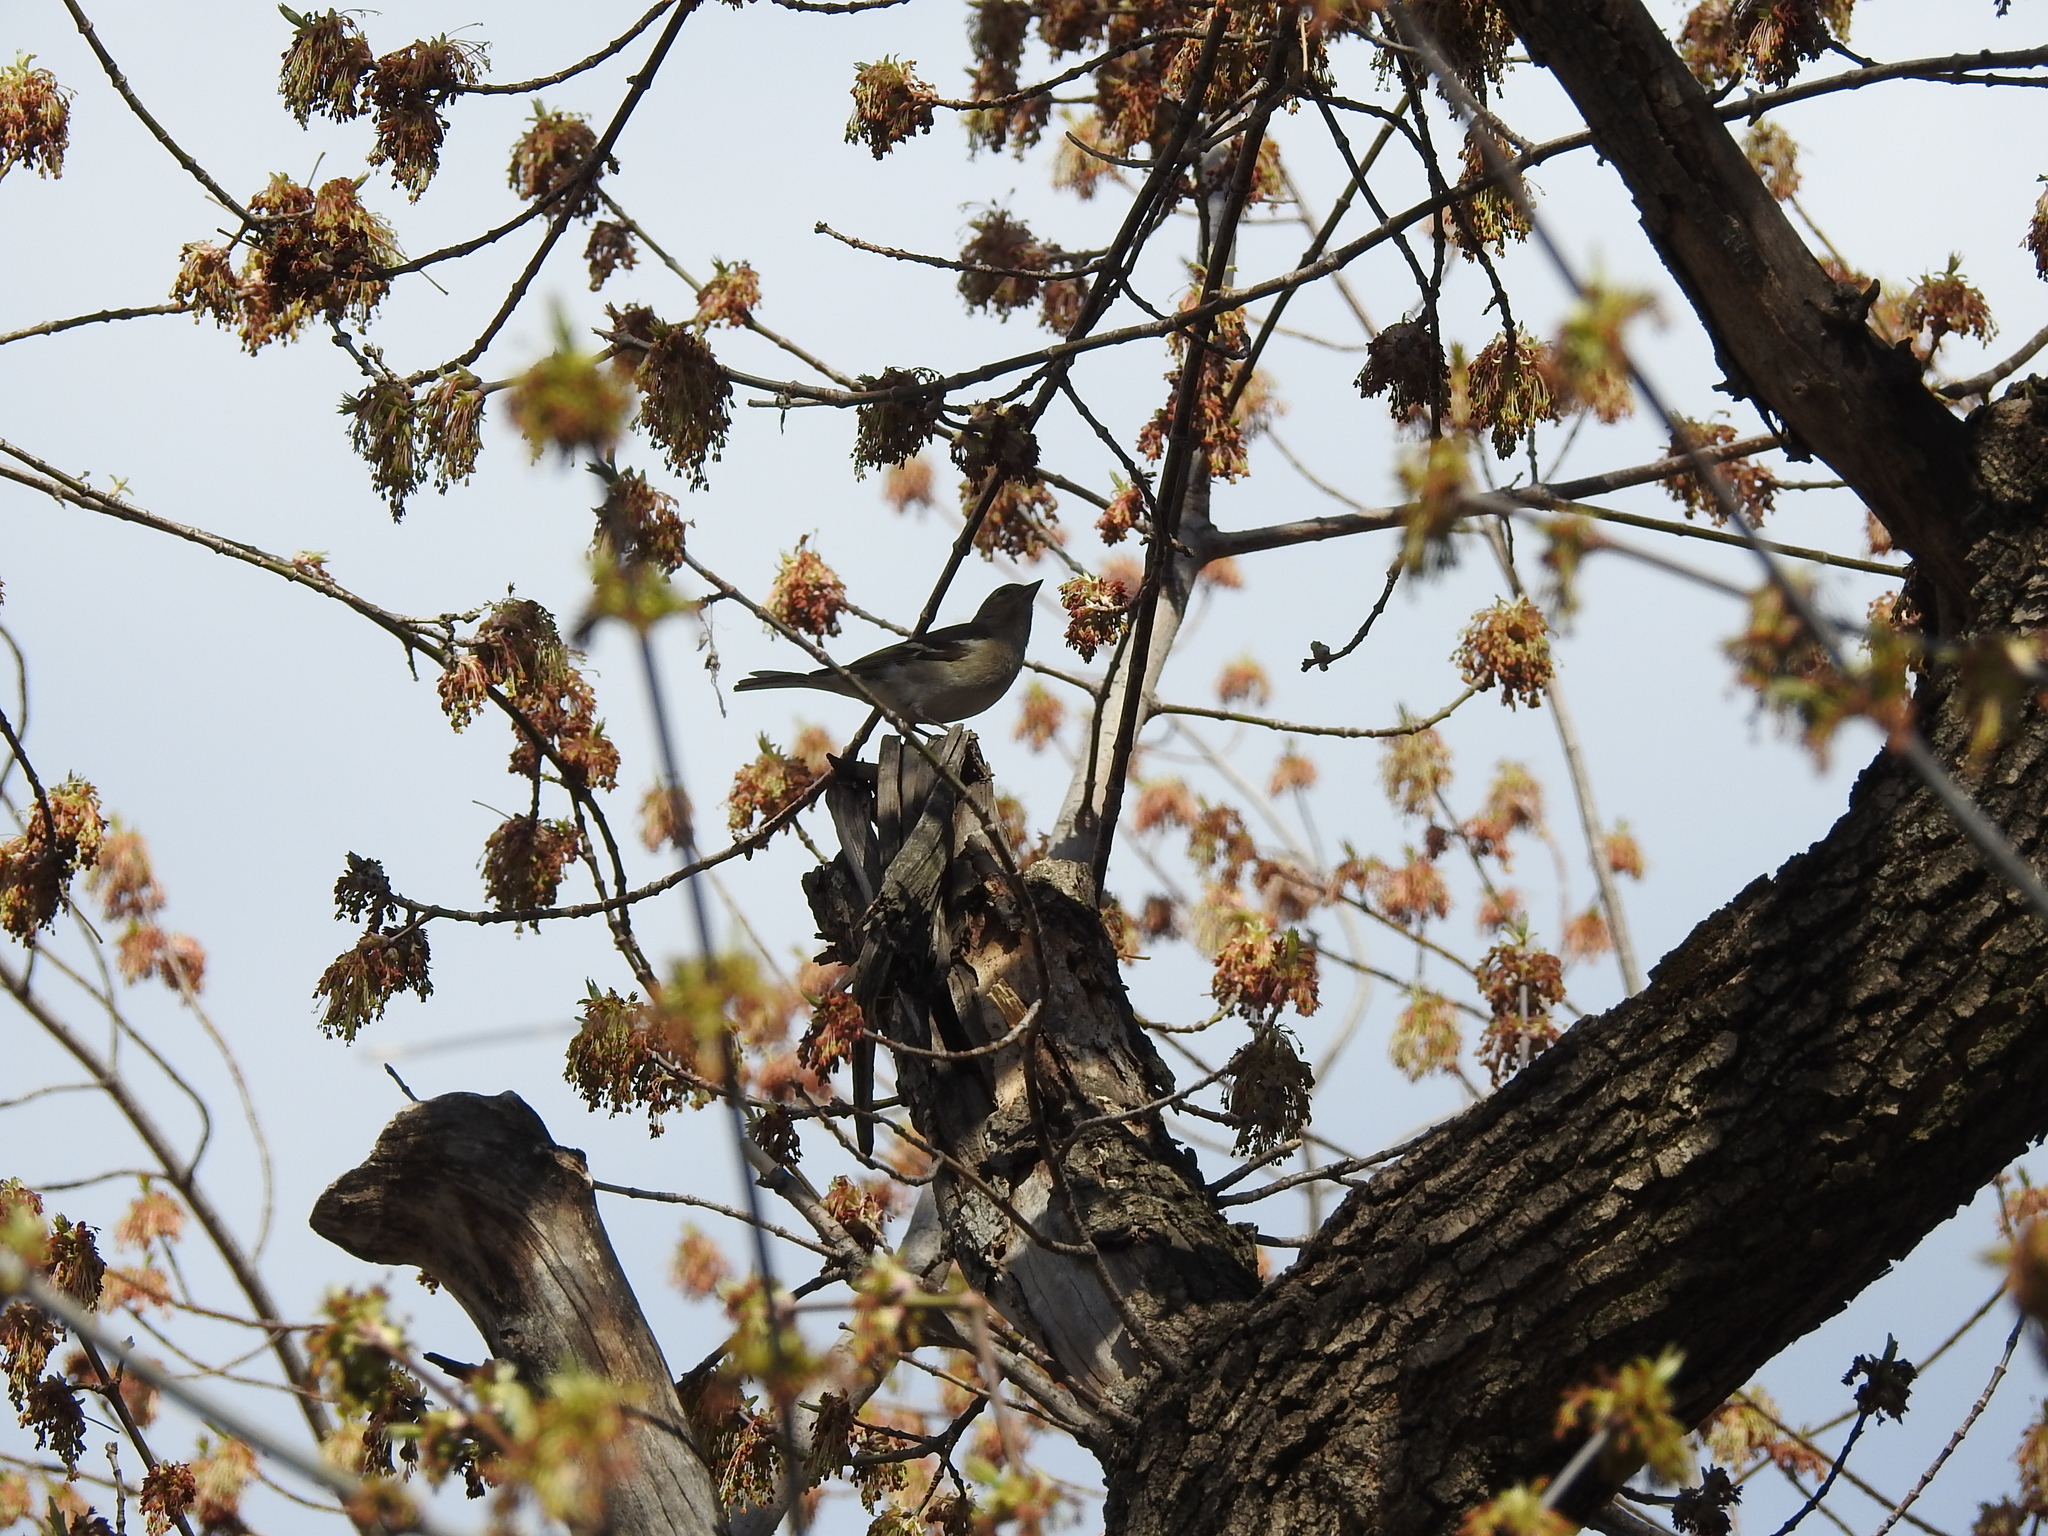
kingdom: Animalia
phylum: Chordata
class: Aves
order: Passeriformes
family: Fringillidae
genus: Fringilla
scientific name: Fringilla coelebs
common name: Common chaffinch
